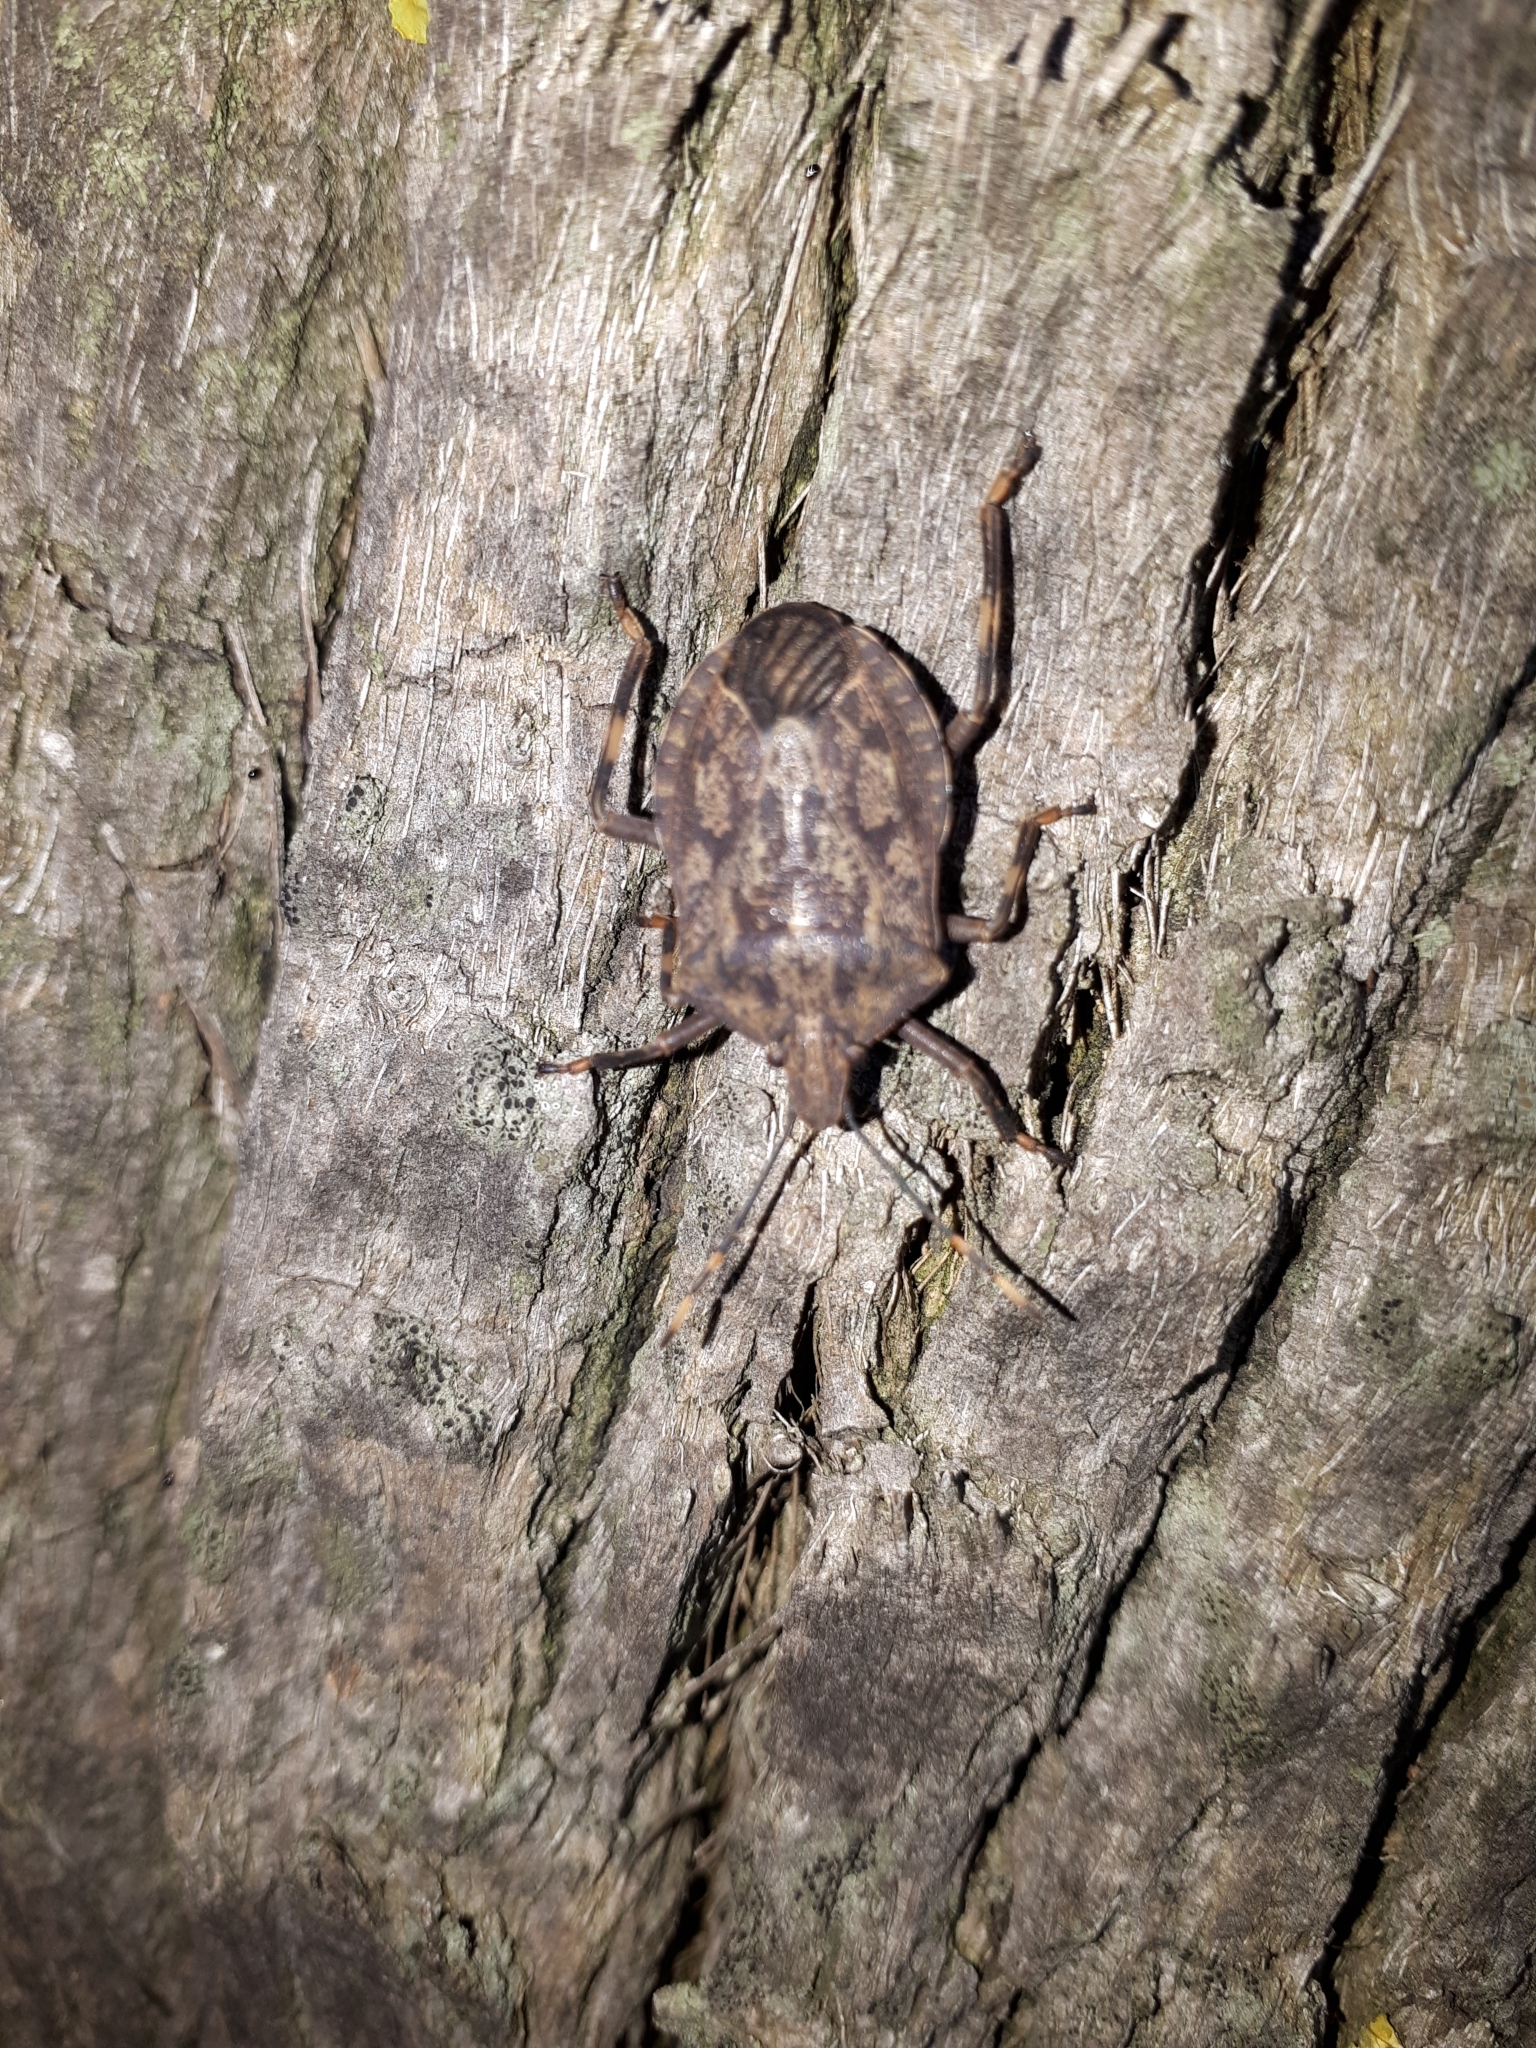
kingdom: Animalia
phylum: Arthropoda
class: Insecta
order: Hemiptera
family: Pentatomidae
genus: Coenomorpha
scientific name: Coenomorpha nervosa
